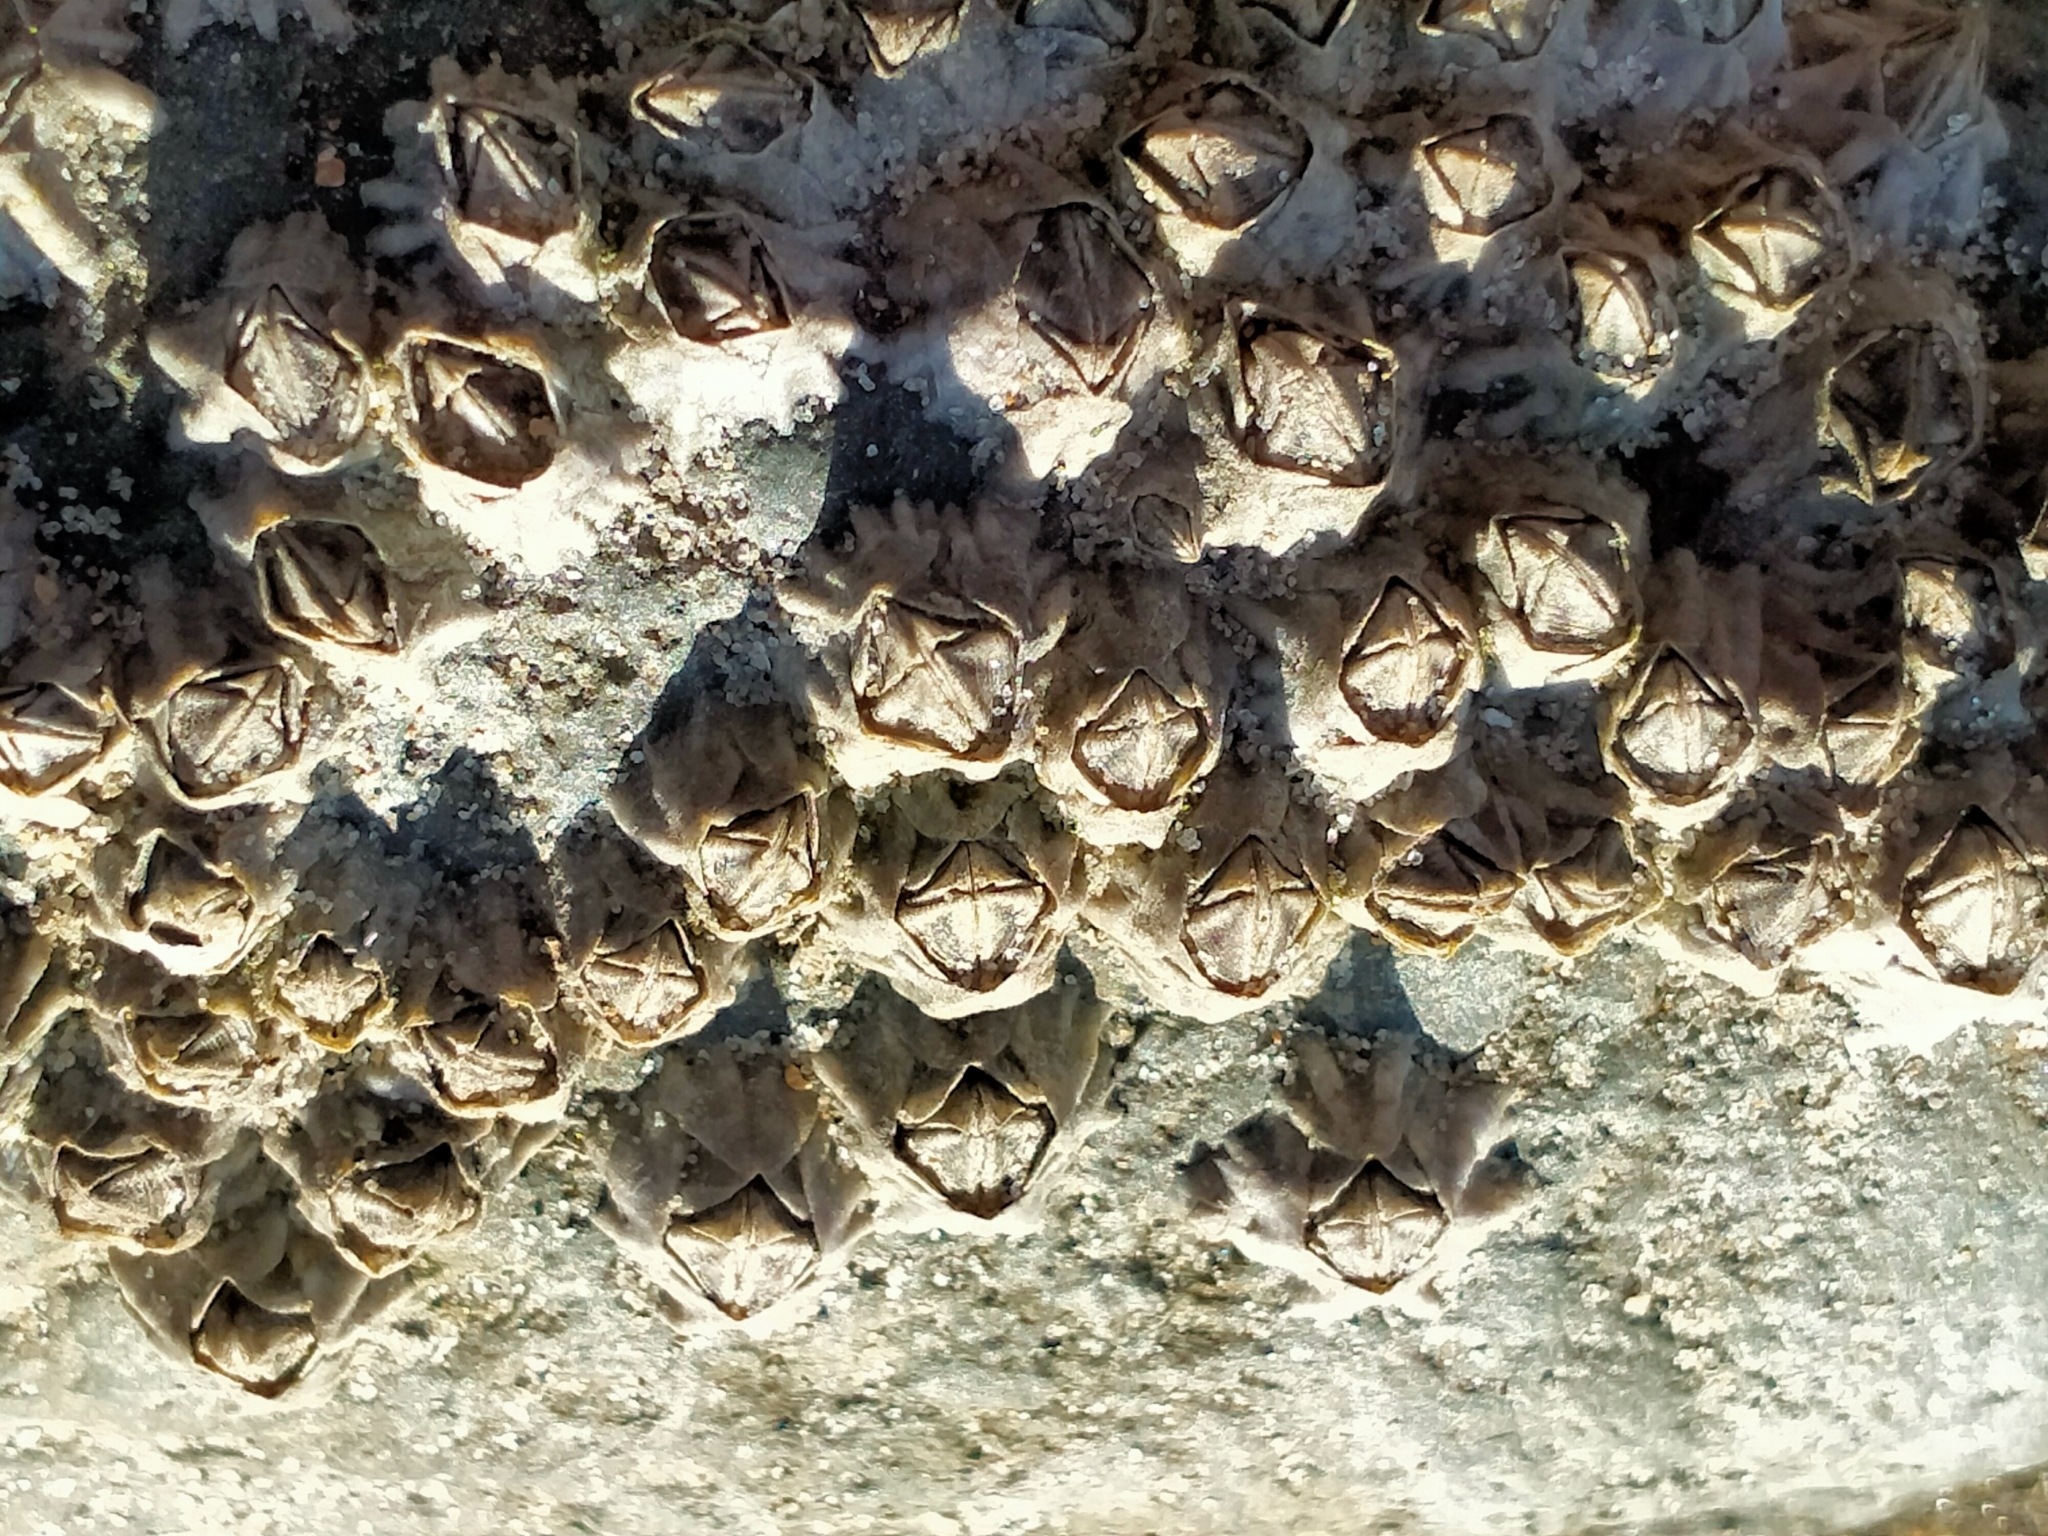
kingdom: Animalia
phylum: Arthropoda
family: Elminiidae
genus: Austrominius
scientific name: Austrominius modestus
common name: Australasian barnacle
